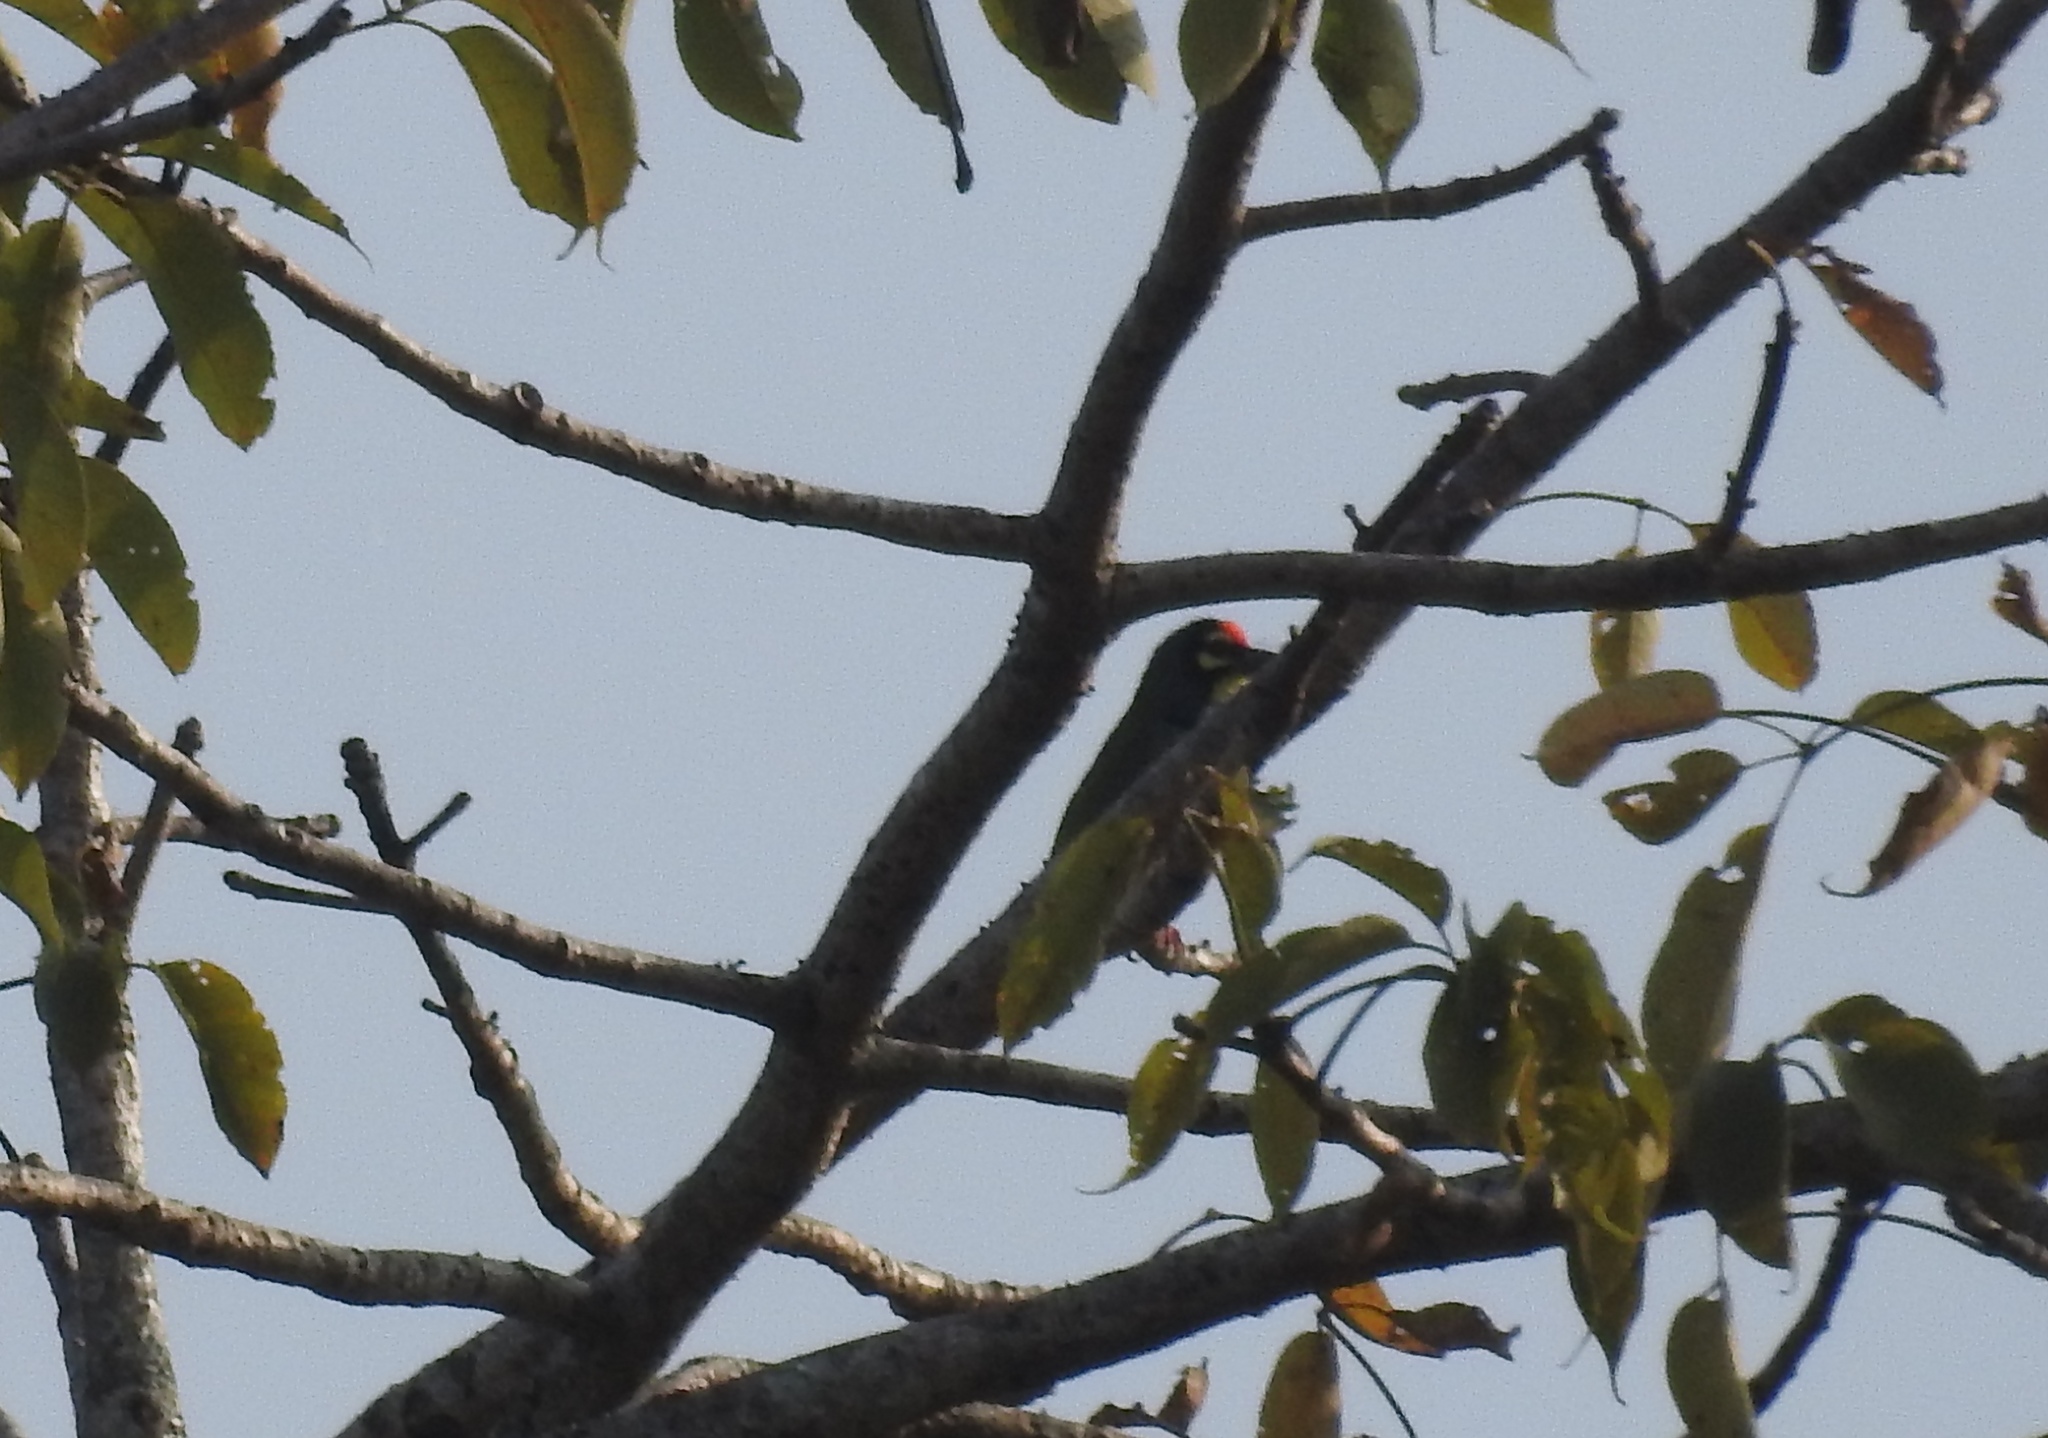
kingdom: Animalia
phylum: Chordata
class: Aves
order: Piciformes
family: Megalaimidae
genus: Psilopogon
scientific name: Psilopogon haemacephalus
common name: Coppersmith barbet
